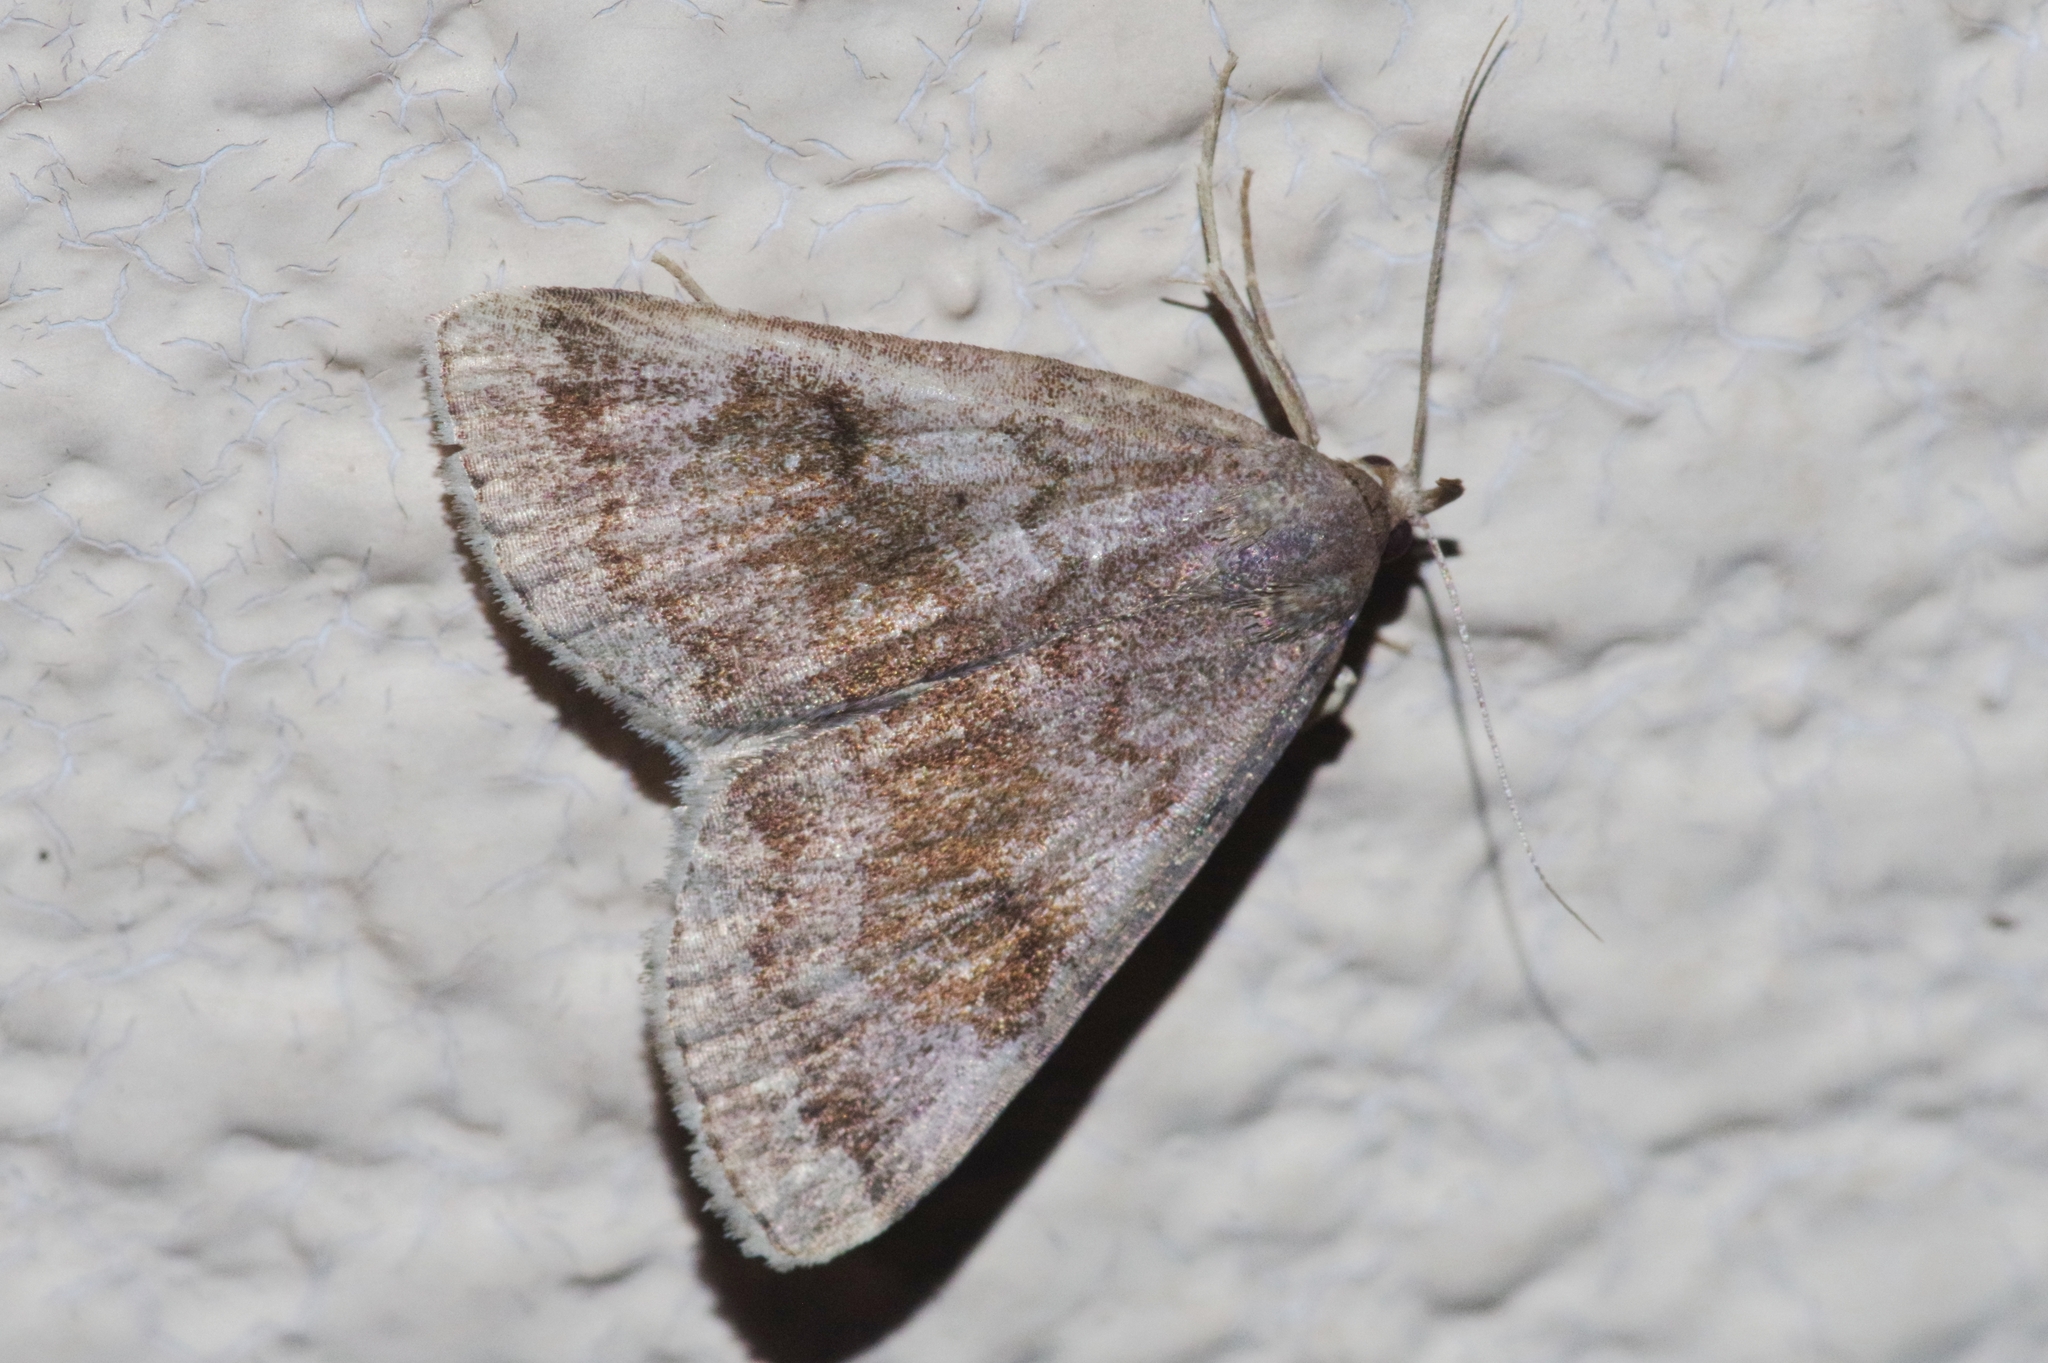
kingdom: Animalia
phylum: Arthropoda
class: Insecta
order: Lepidoptera
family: Erebidae
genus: Zanclognatha
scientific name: Zanclognatha
